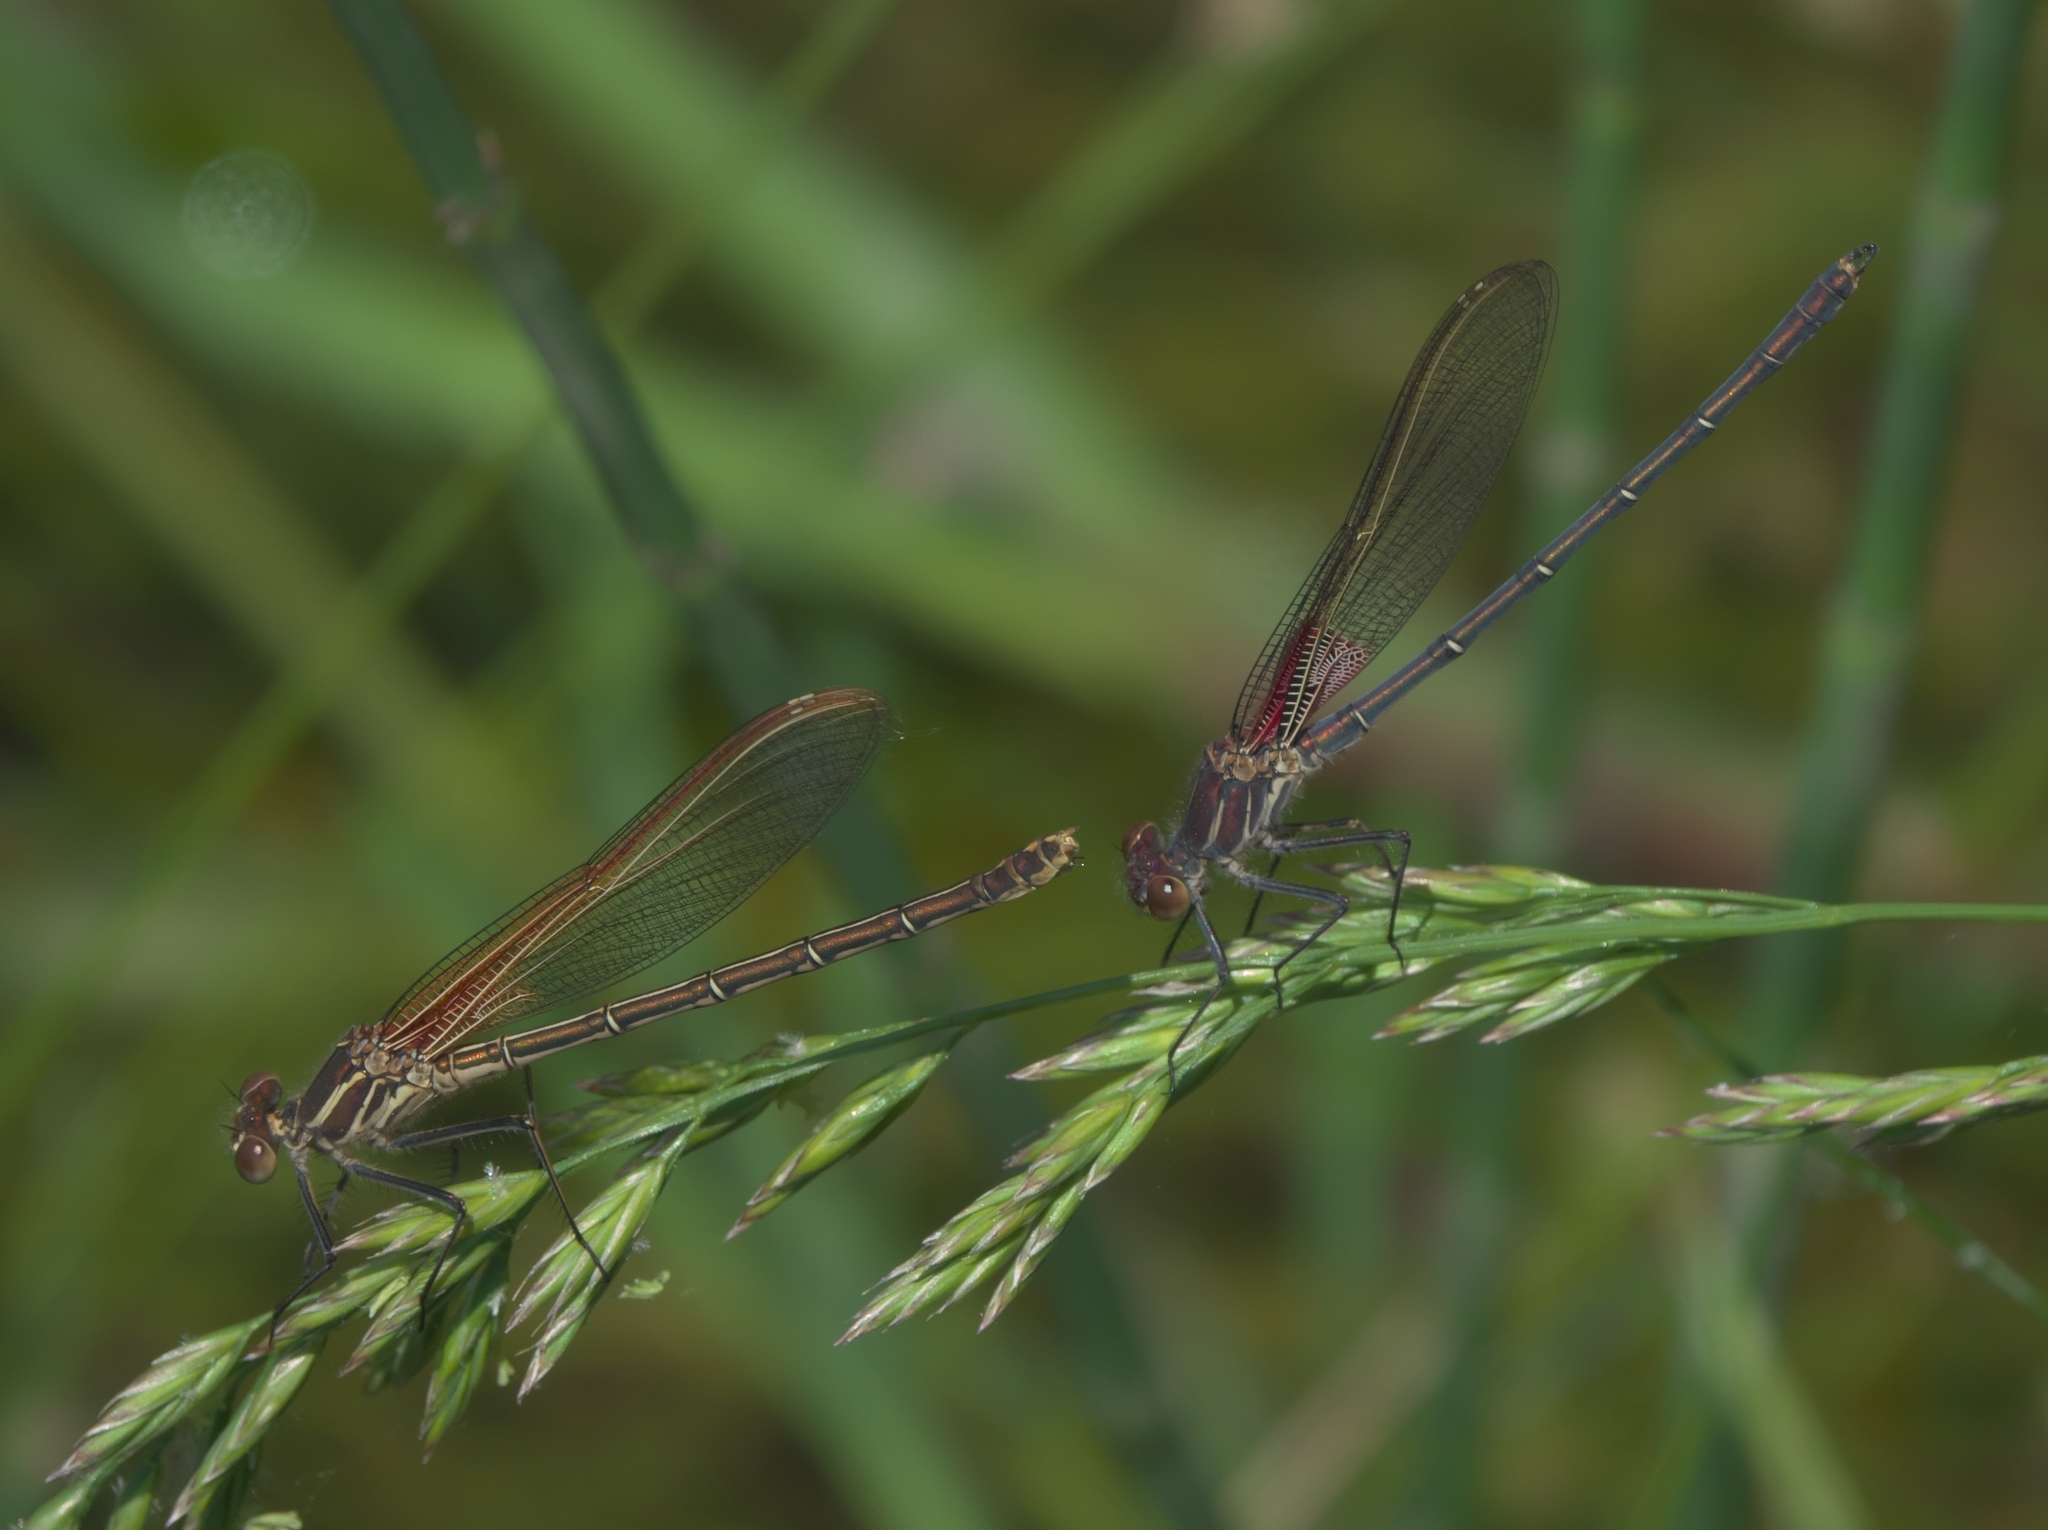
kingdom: Animalia
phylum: Arthropoda
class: Insecta
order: Odonata
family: Calopterygidae
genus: Hetaerina
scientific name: Hetaerina americana
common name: American rubyspot
